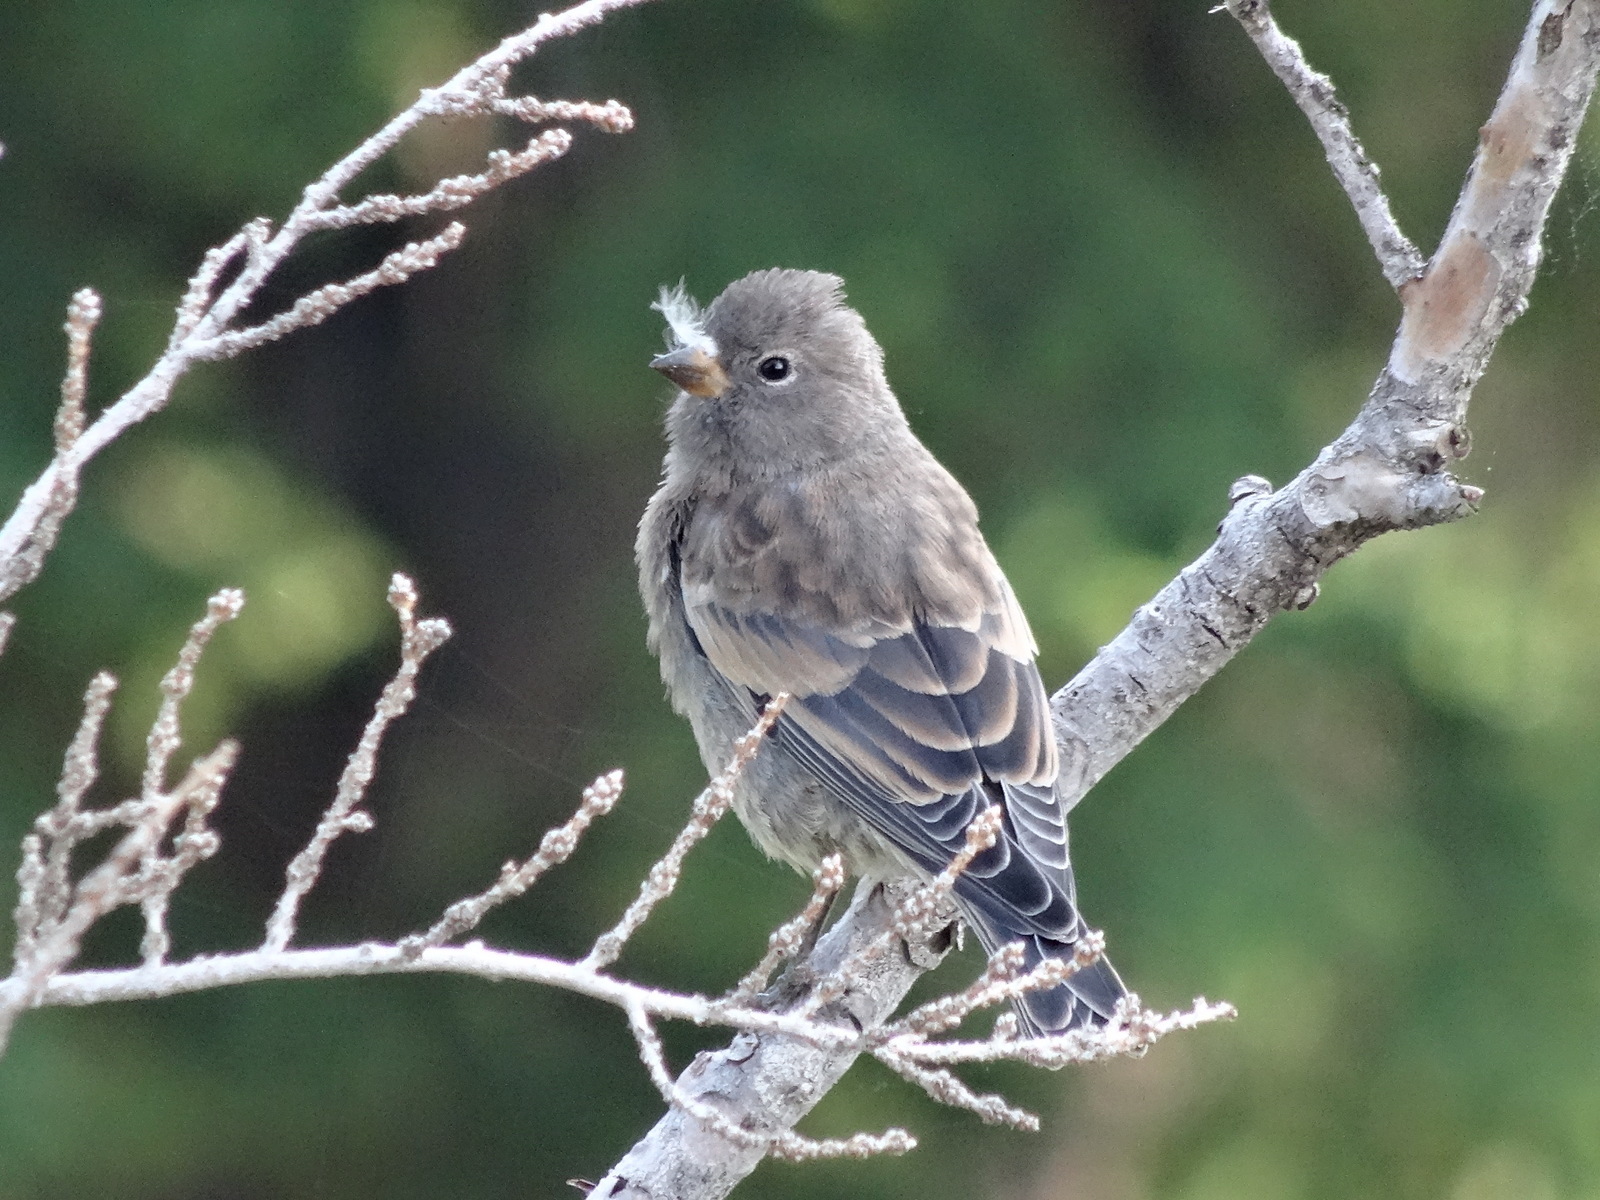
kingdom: Animalia
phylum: Chordata
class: Aves
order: Passeriformes
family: Fringillidae
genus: Leucosticte
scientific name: Leucosticte tephrocotis
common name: Gray-crowned rosy-finch
